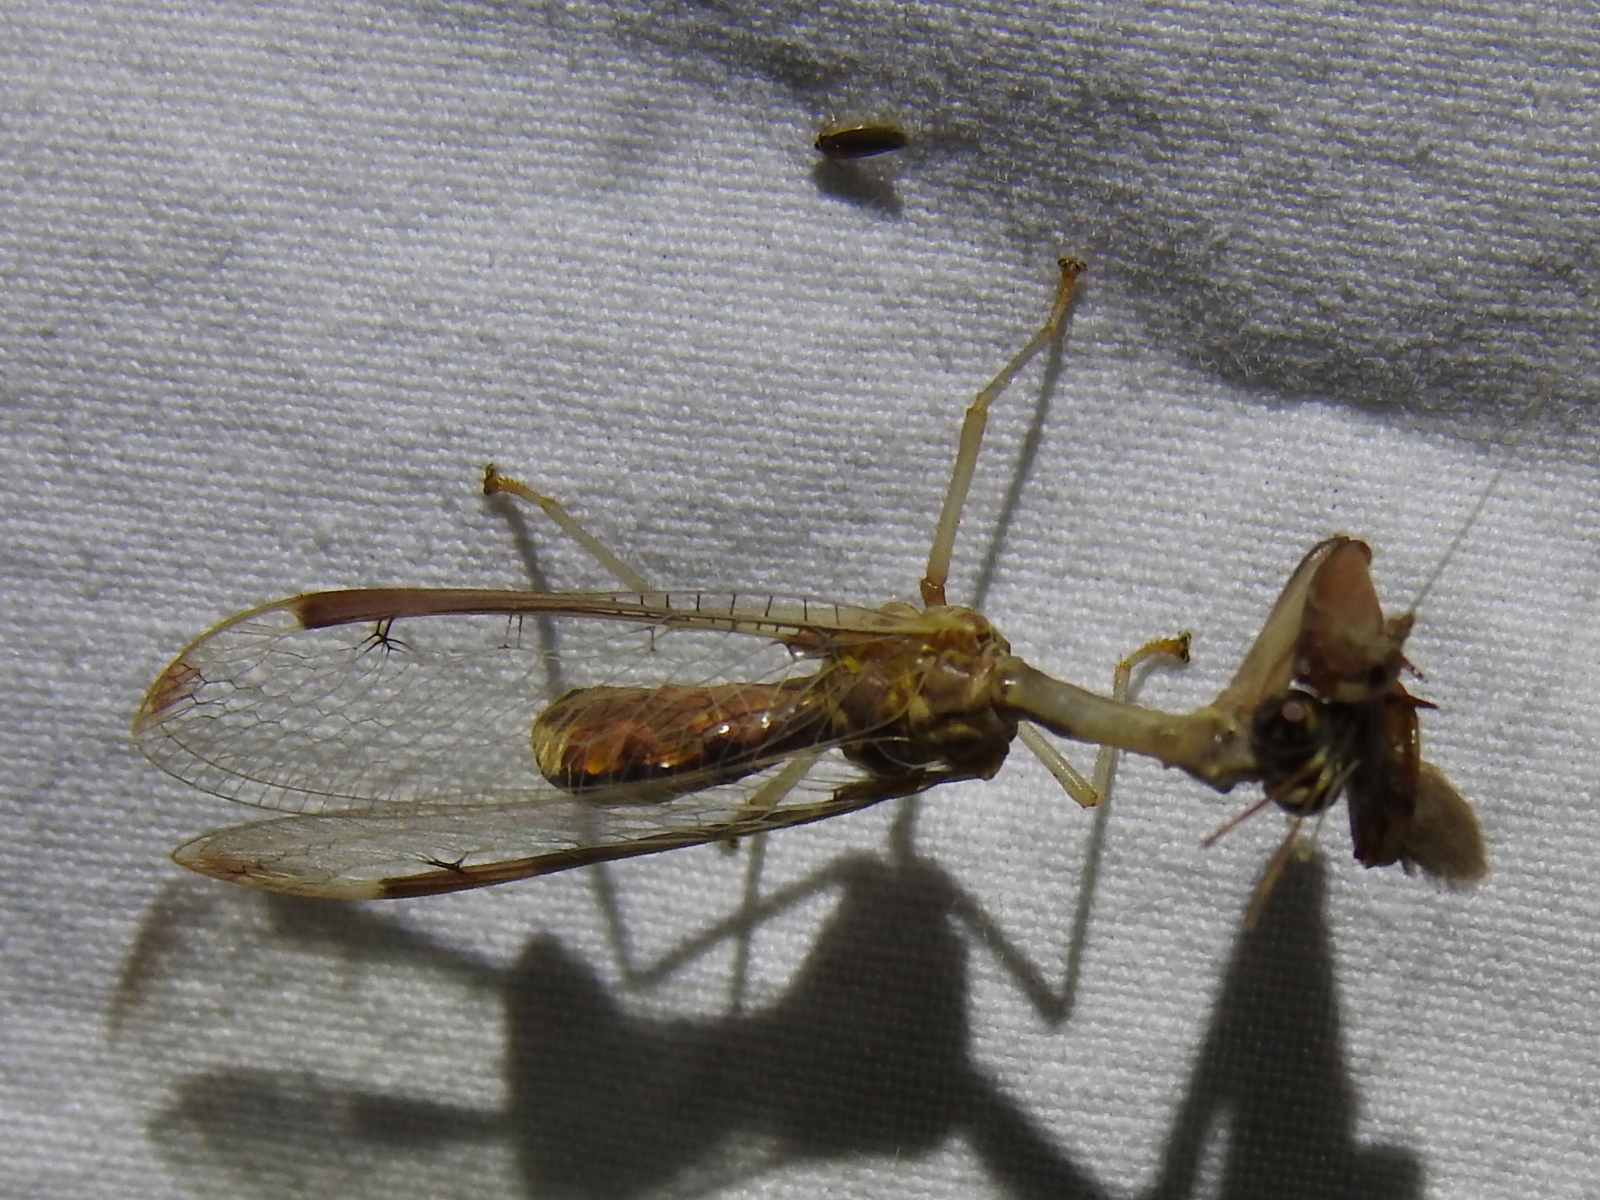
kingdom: Animalia
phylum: Arthropoda
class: Insecta
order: Neuroptera
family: Mantispidae
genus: Dicromantispa
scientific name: Dicromantispa interrupta
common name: Four-spotted mantidfly
